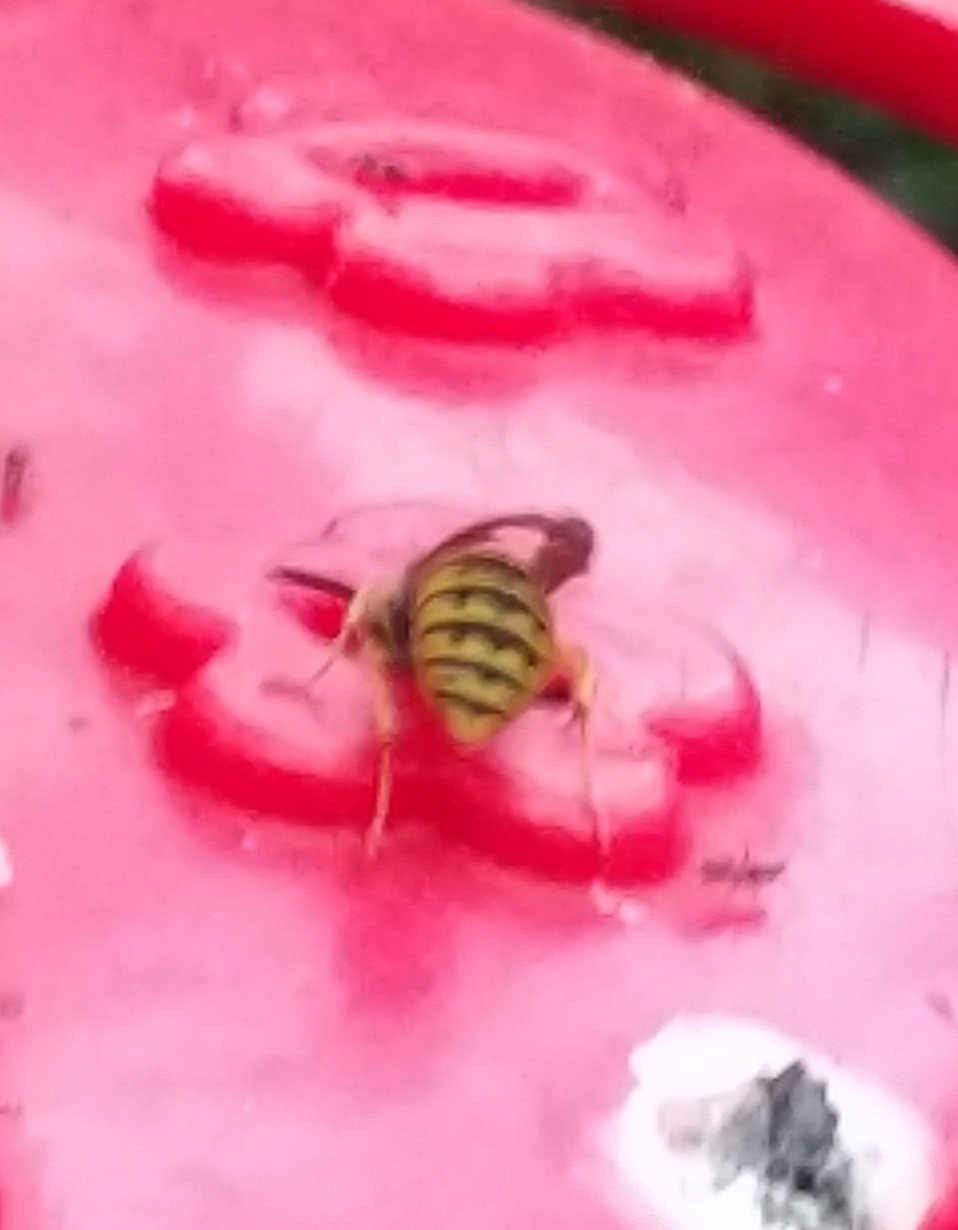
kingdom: Animalia
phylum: Arthropoda
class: Insecta
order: Hymenoptera
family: Vespidae
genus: Vespula
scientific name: Vespula
